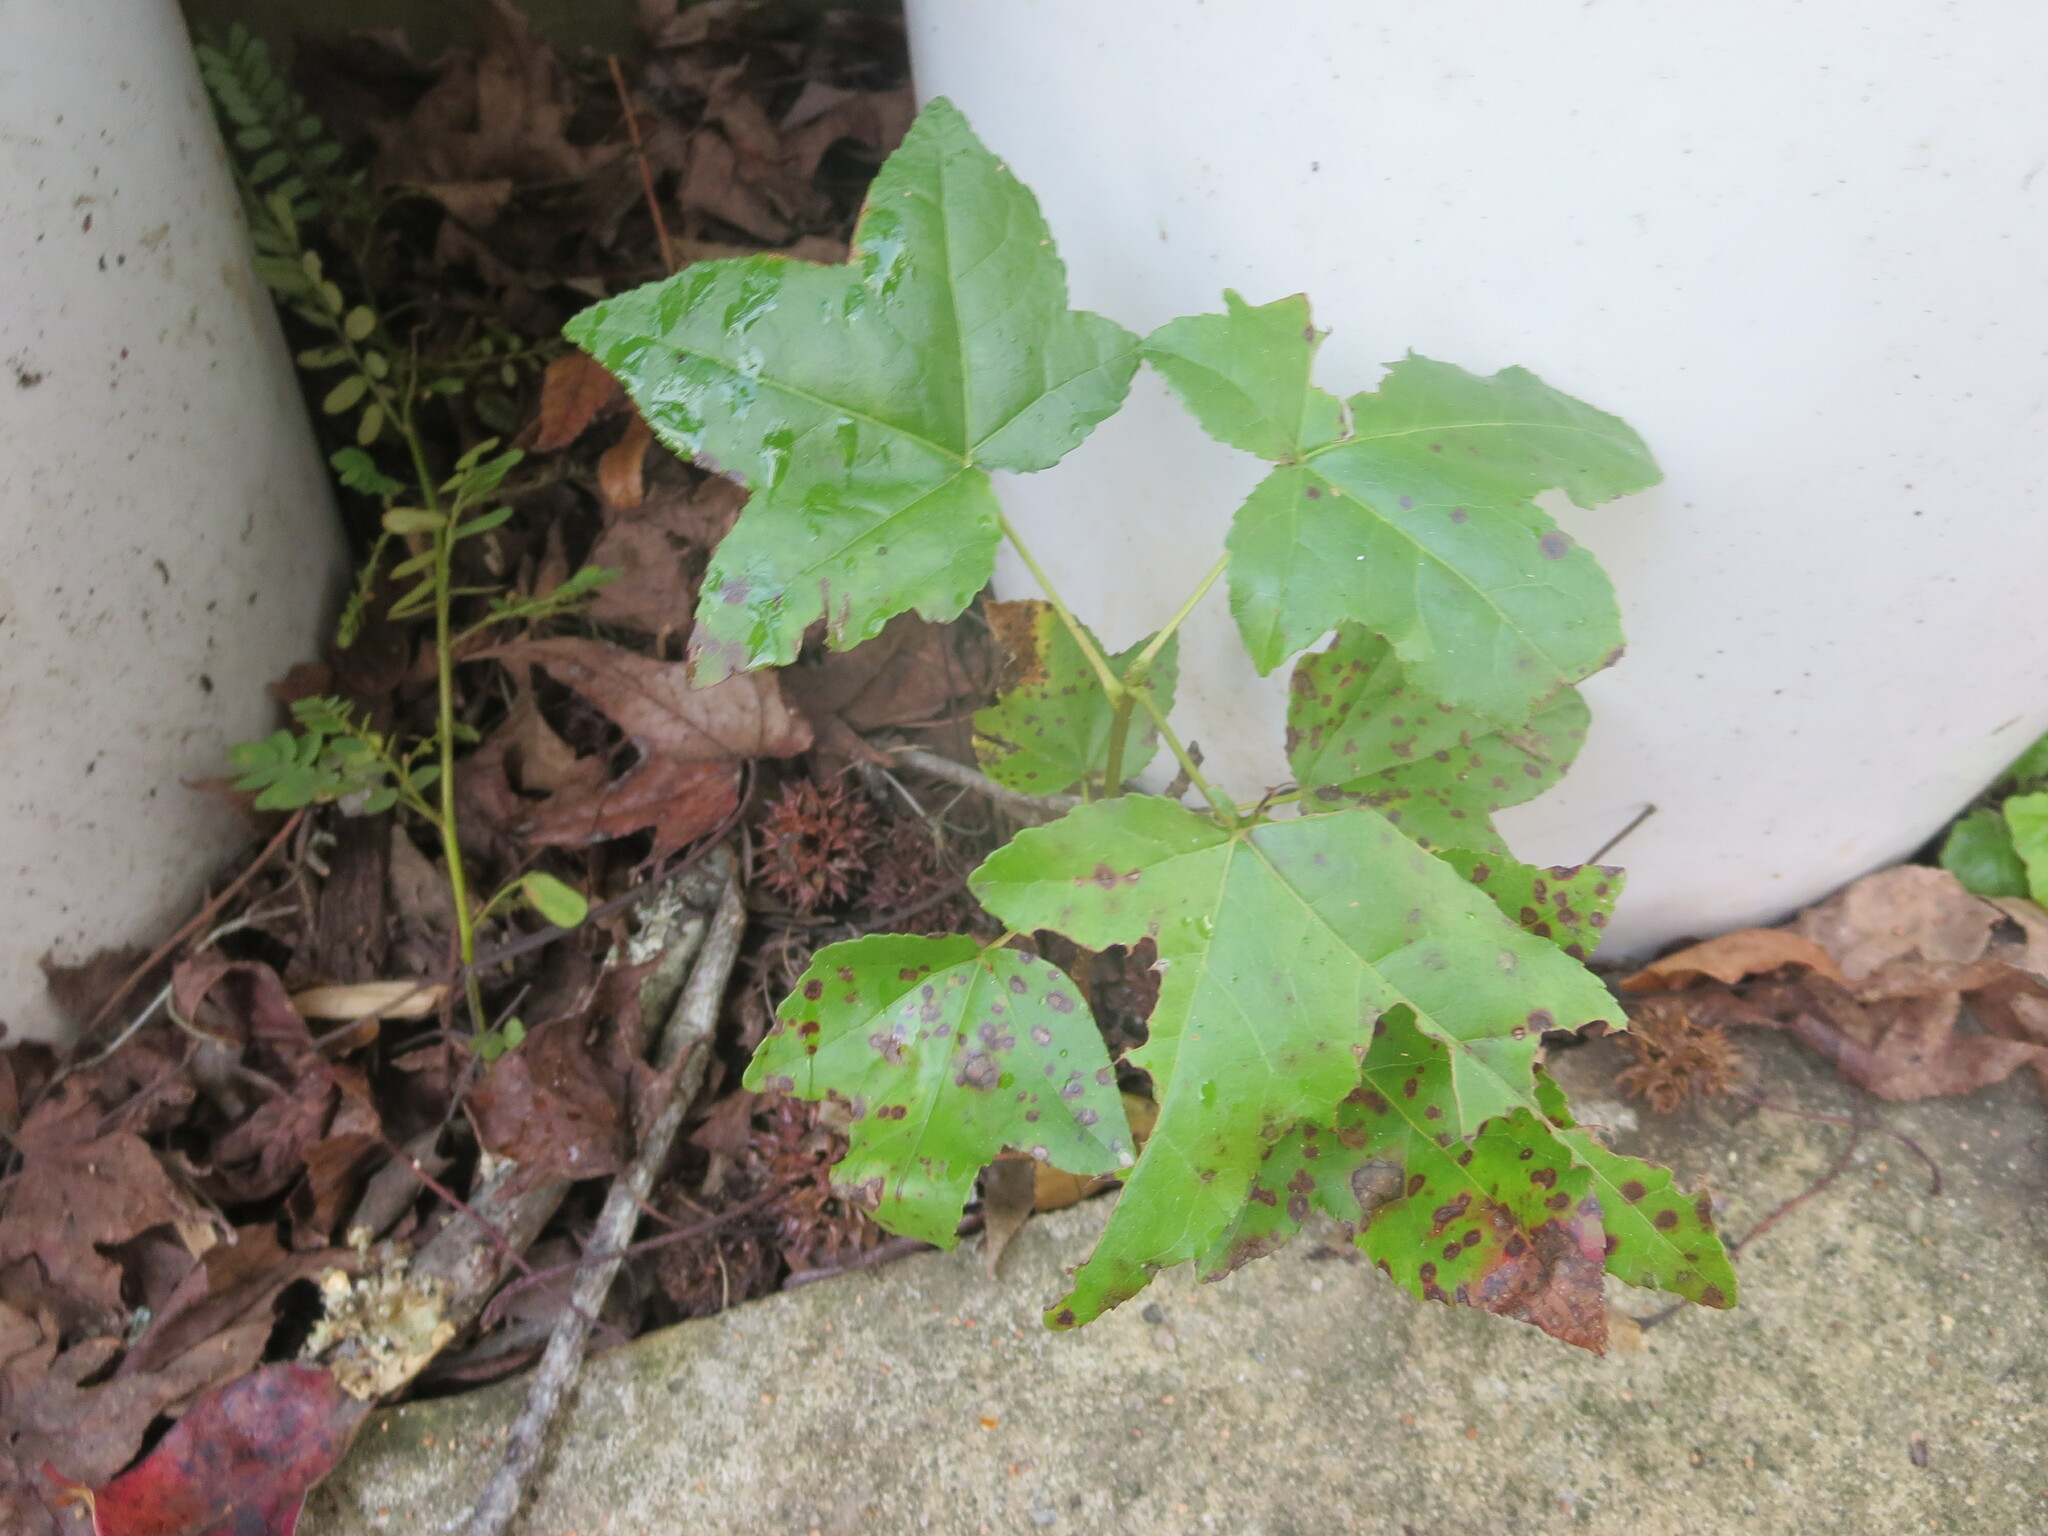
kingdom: Plantae
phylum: Tracheophyta
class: Magnoliopsida
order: Saxifragales
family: Altingiaceae
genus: Liquidambar
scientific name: Liquidambar styraciflua
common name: Sweet gum
